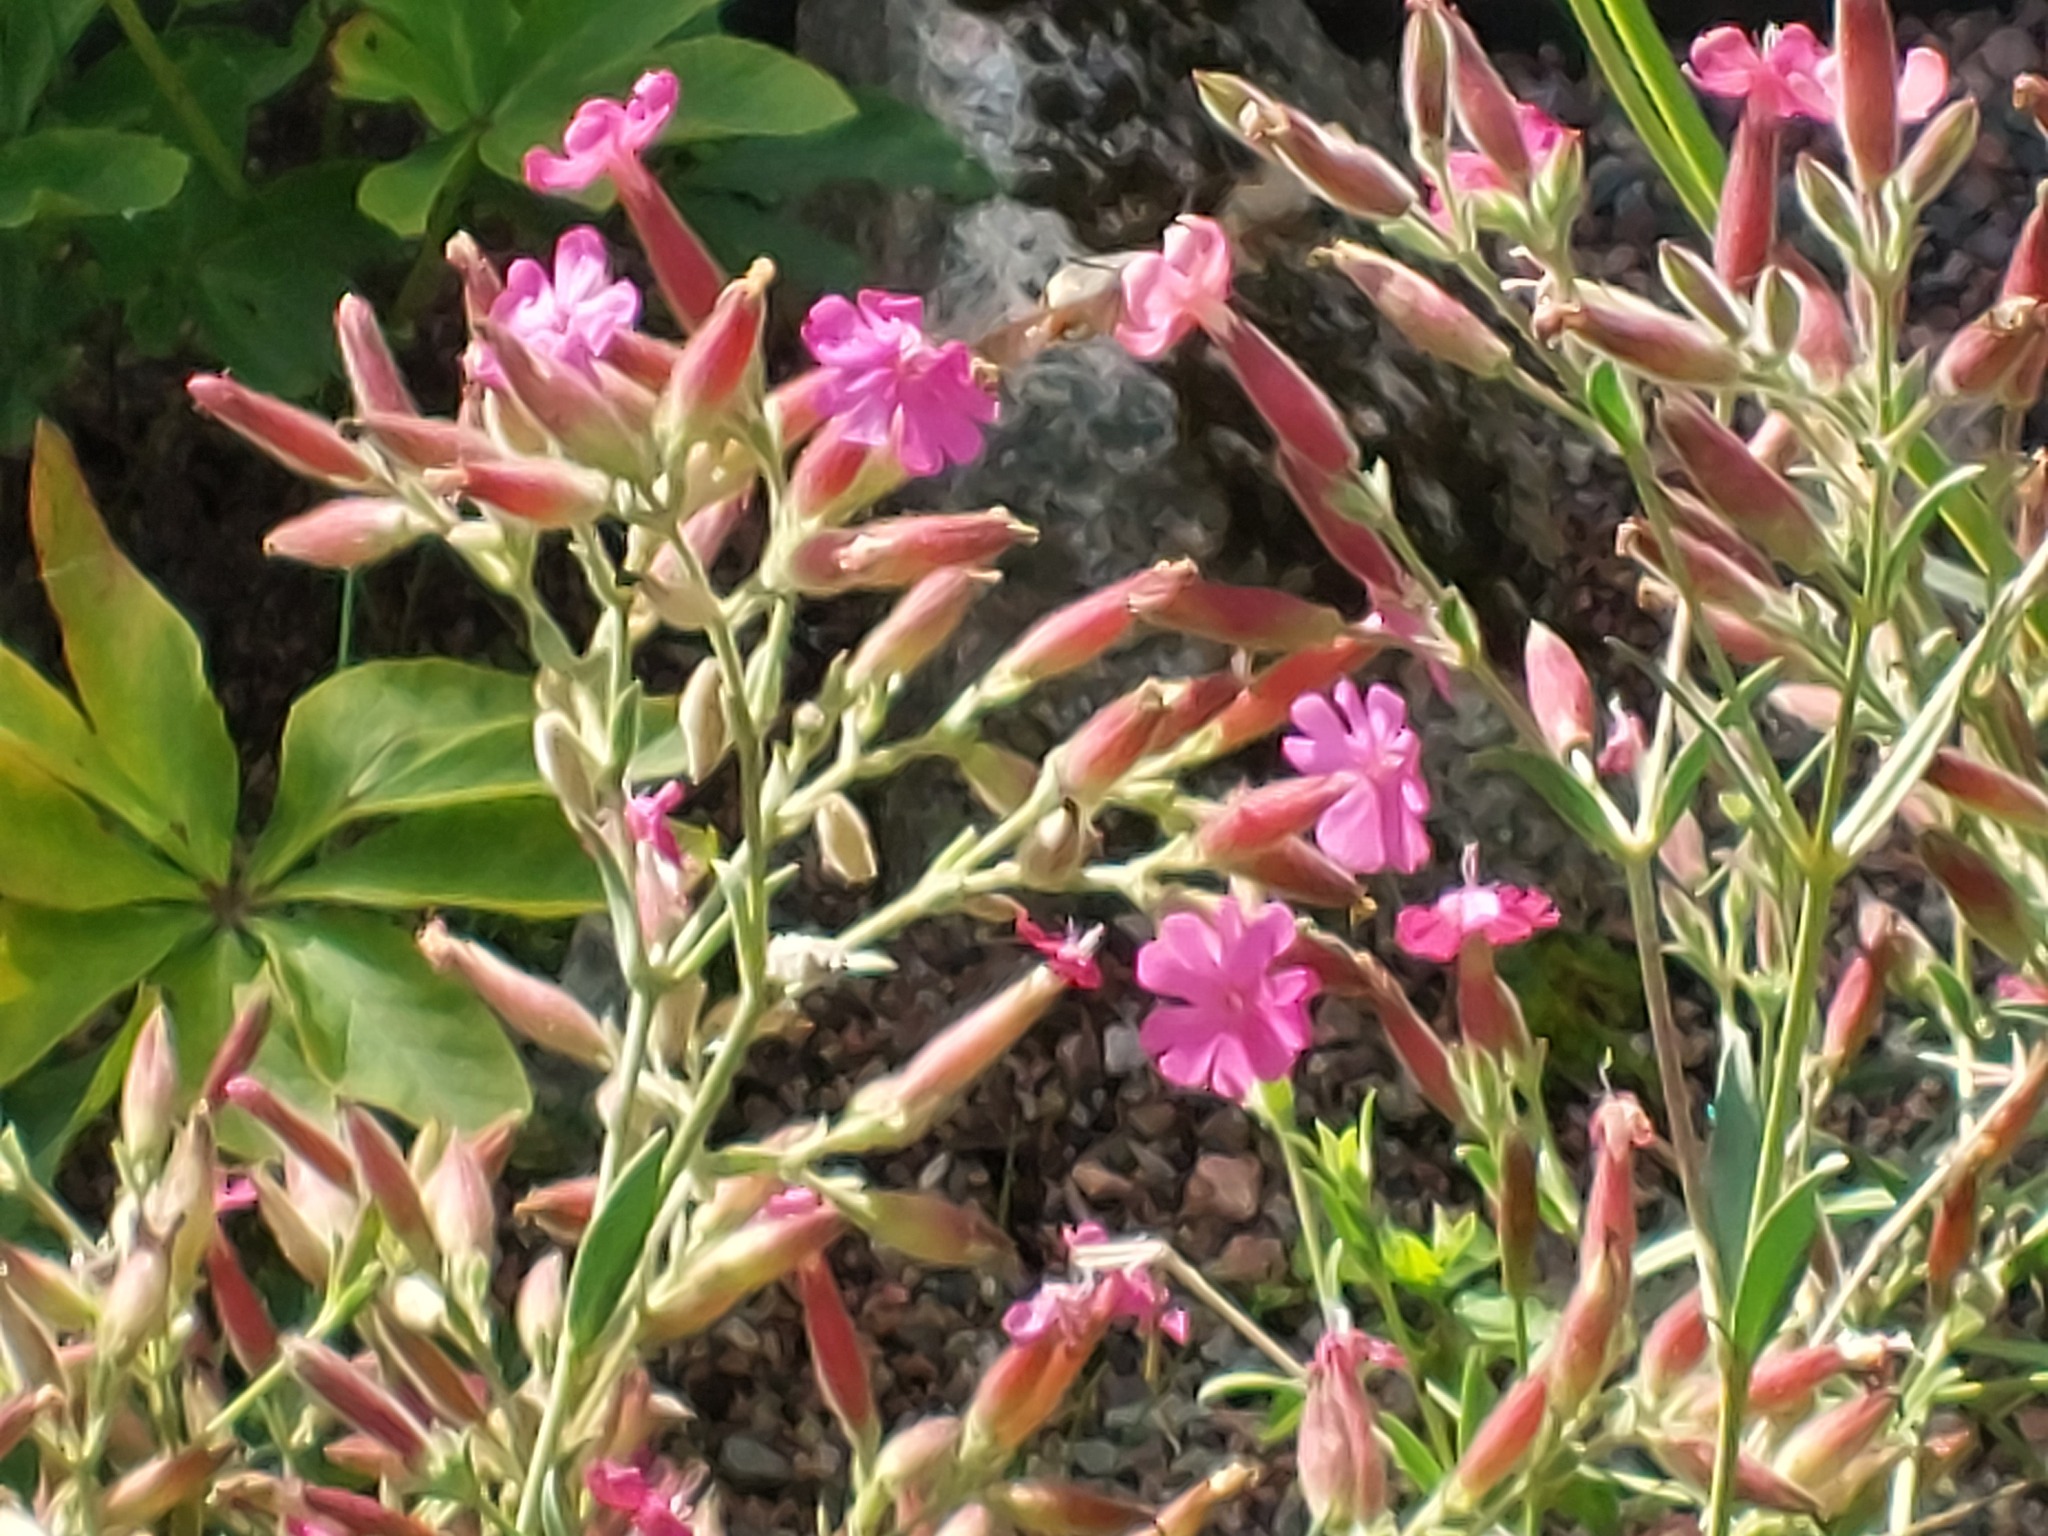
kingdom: Animalia
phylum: Arthropoda
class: Insecta
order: Lepidoptera
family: Sphingidae
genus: Macroglossum
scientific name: Macroglossum stellatarum
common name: Humming-bird hawk-moth
